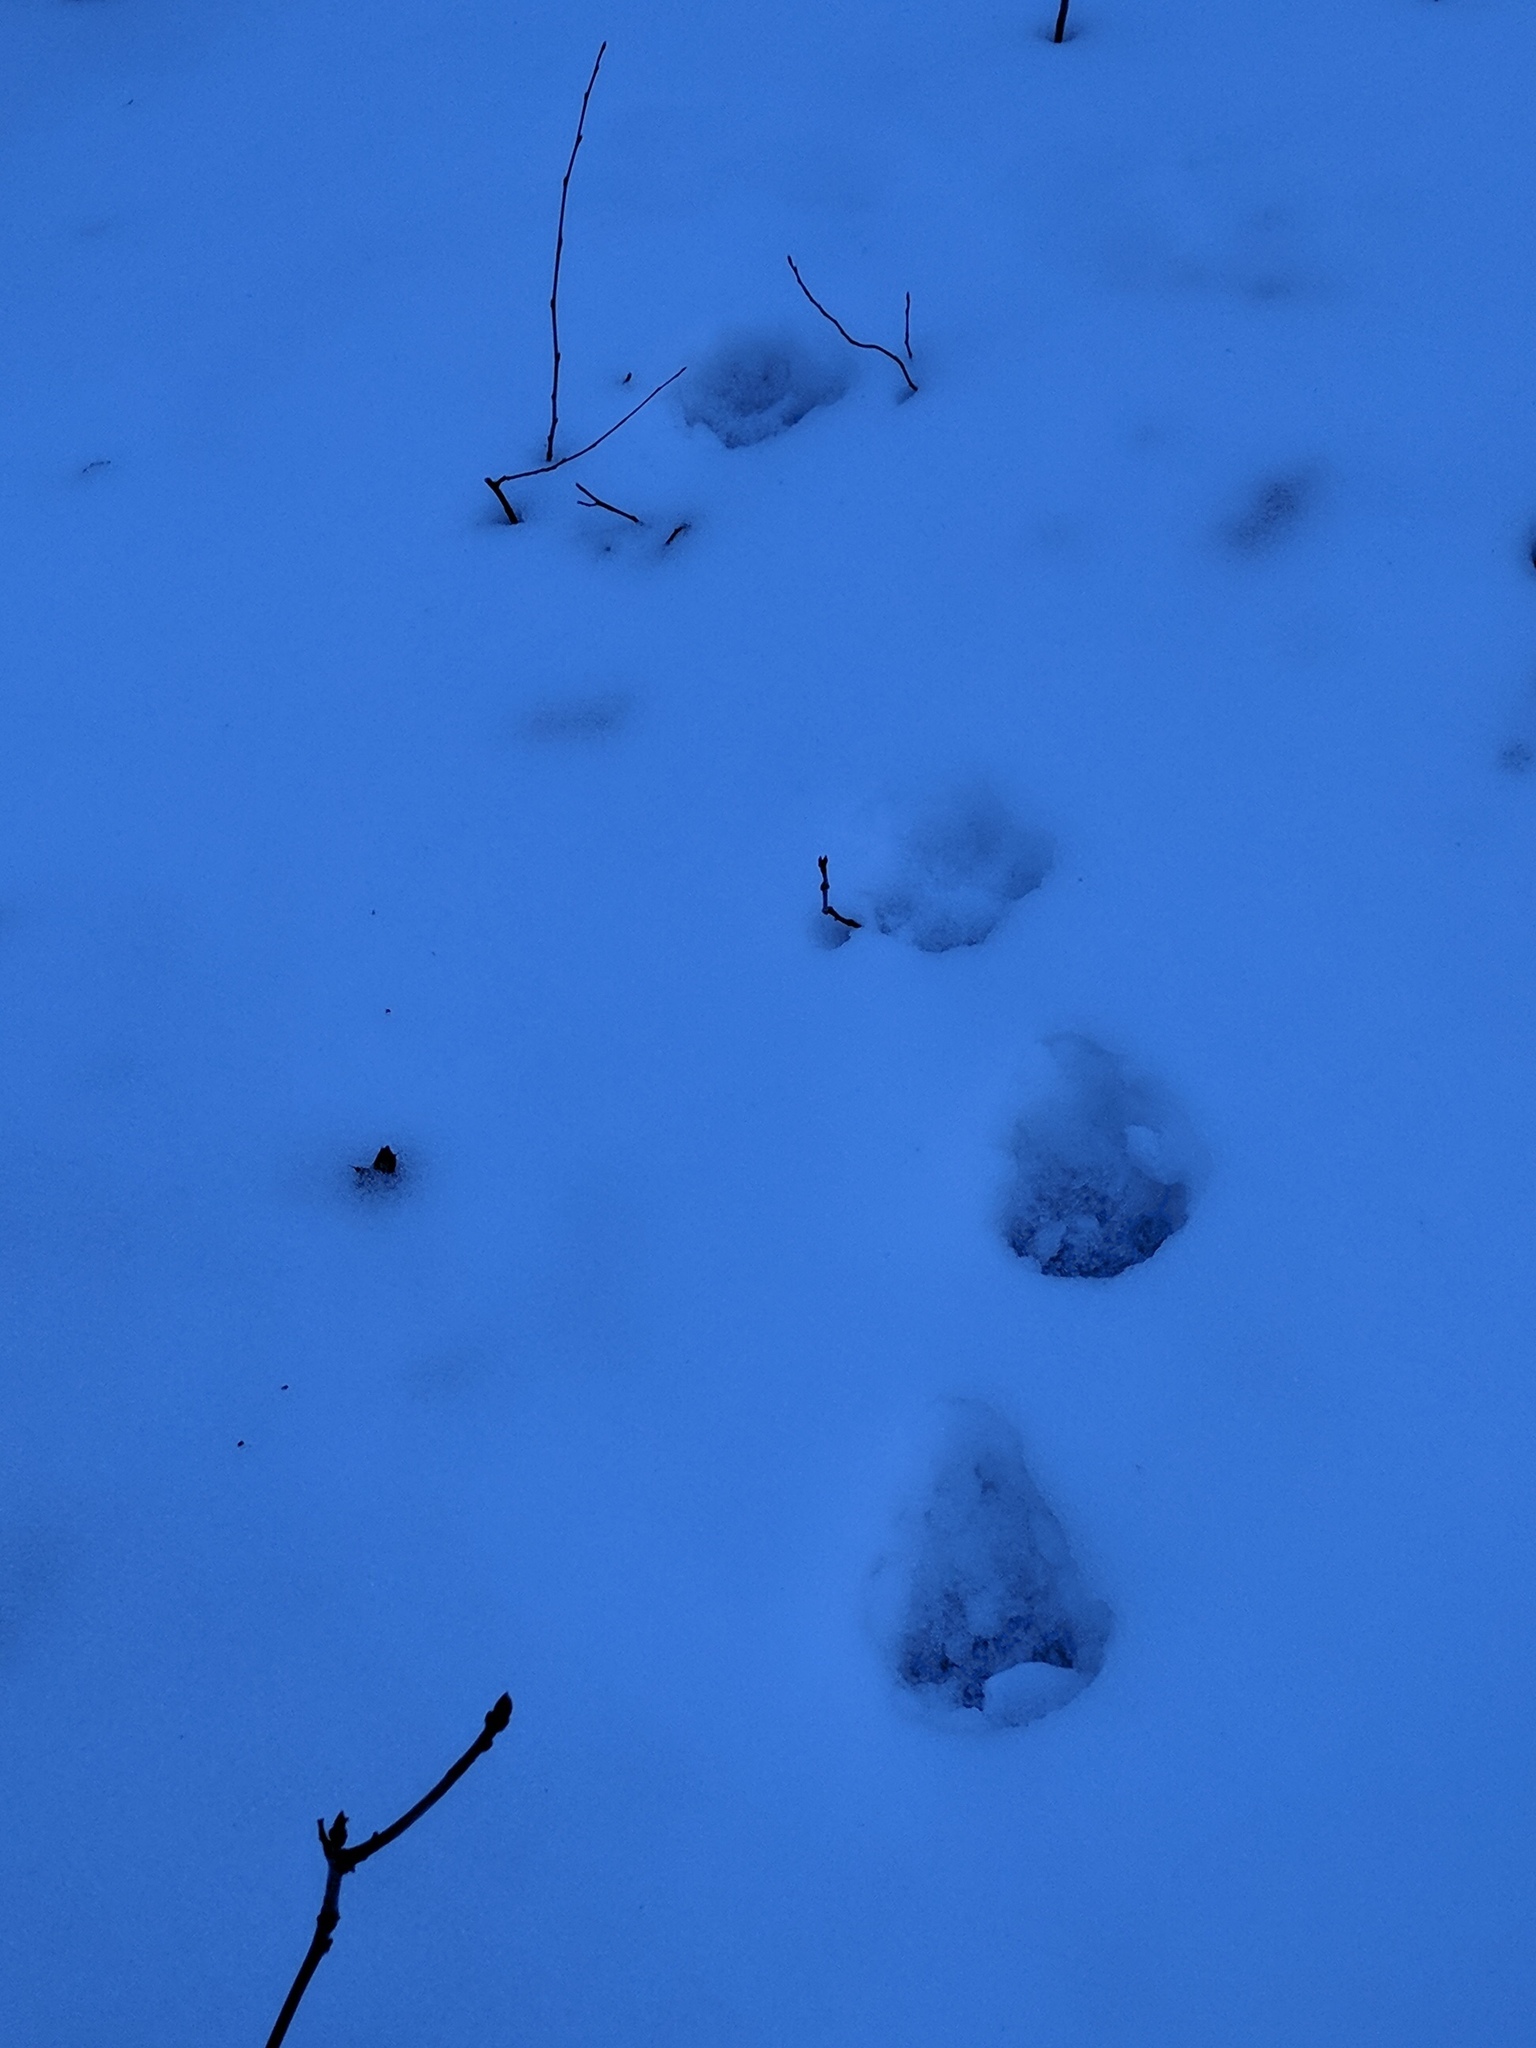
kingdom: Animalia
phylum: Chordata
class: Mammalia
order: Carnivora
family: Canidae
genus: Canis
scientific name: Canis latrans
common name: Coyote
